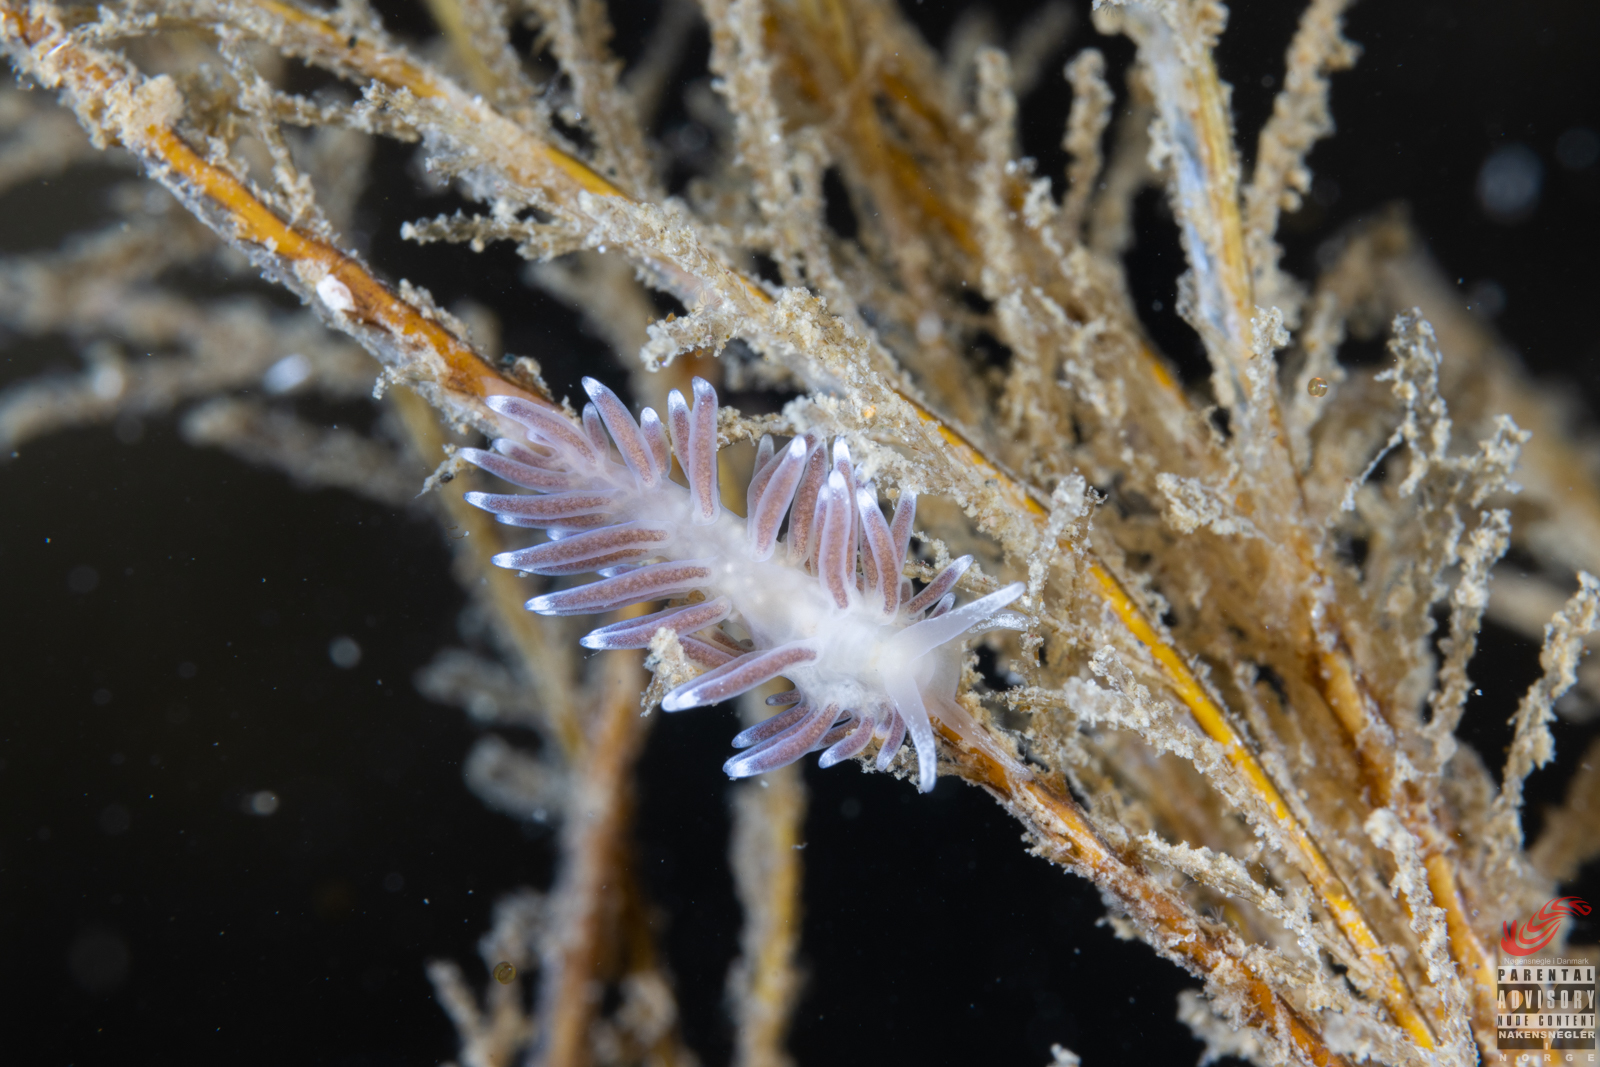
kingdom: Animalia
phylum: Mollusca
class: Gastropoda
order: Nudibranchia
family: Cuthonellidae
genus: Cuthonella
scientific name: Cuthonella concinna
